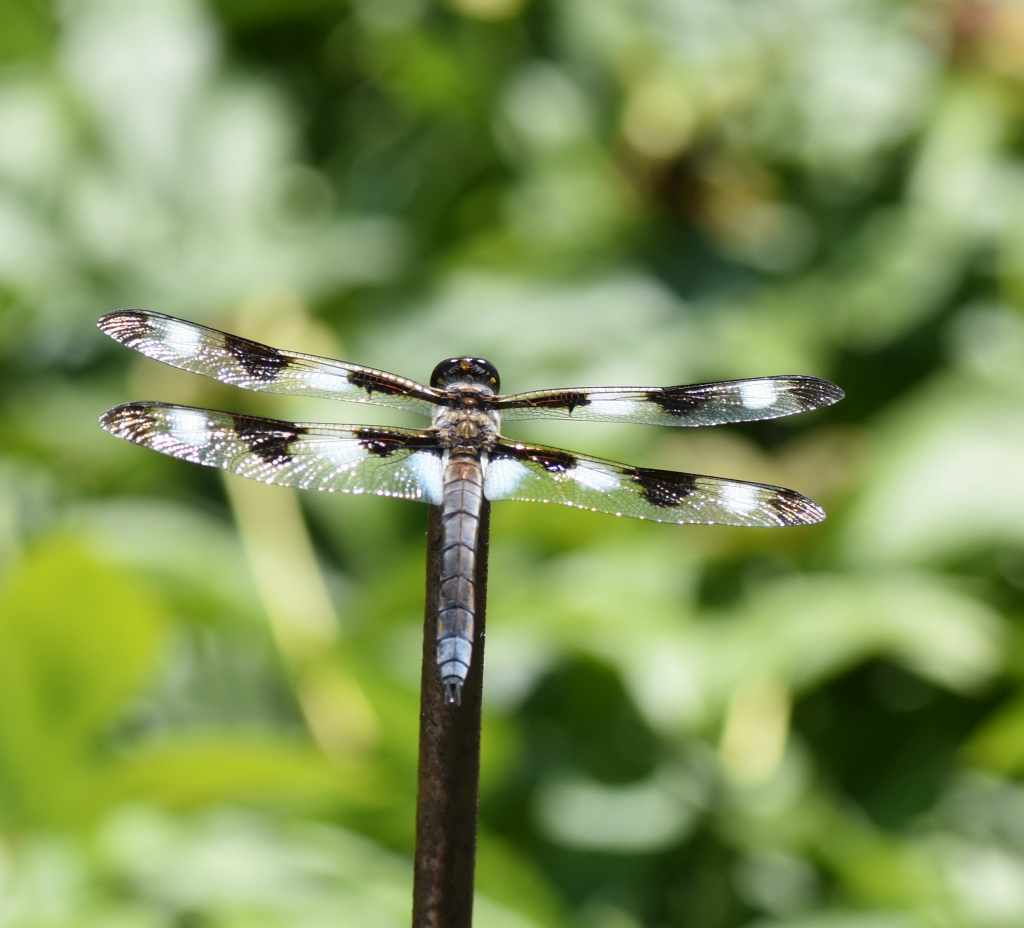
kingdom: Animalia
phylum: Arthropoda
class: Insecta
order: Odonata
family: Libellulidae
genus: Libellula
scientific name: Libellula pulchella
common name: Twelve-spotted skimmer
